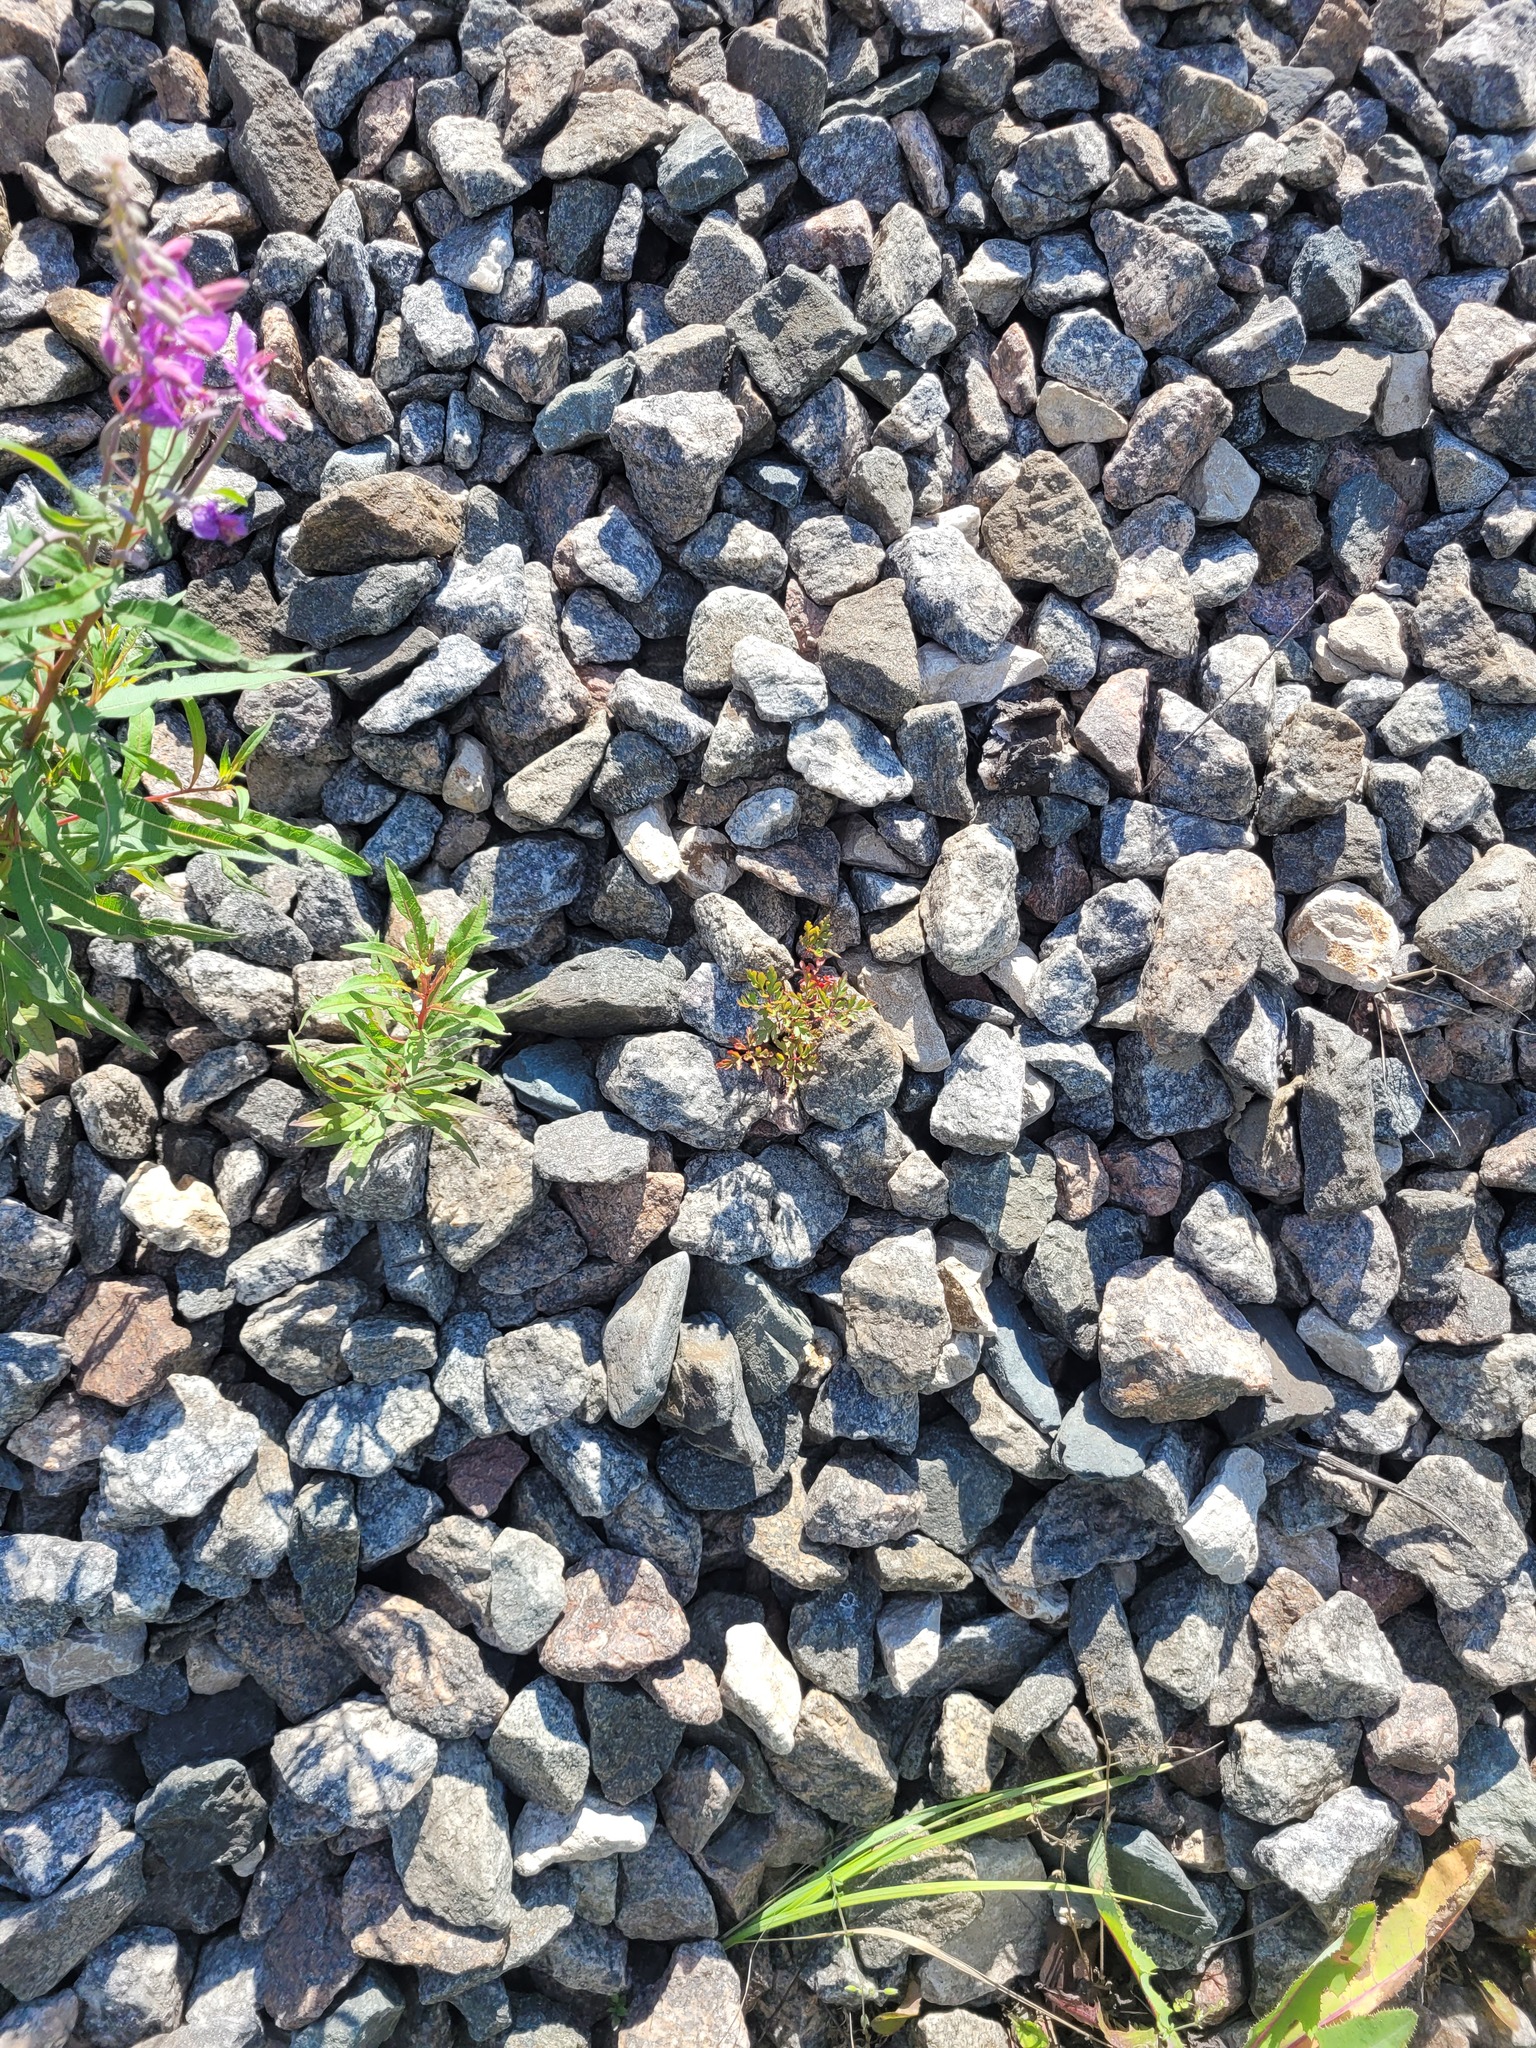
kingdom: Plantae
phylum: Tracheophyta
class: Magnoliopsida
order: Geraniales
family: Geraniaceae
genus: Geranium
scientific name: Geranium robertianum
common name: Herb-robert
